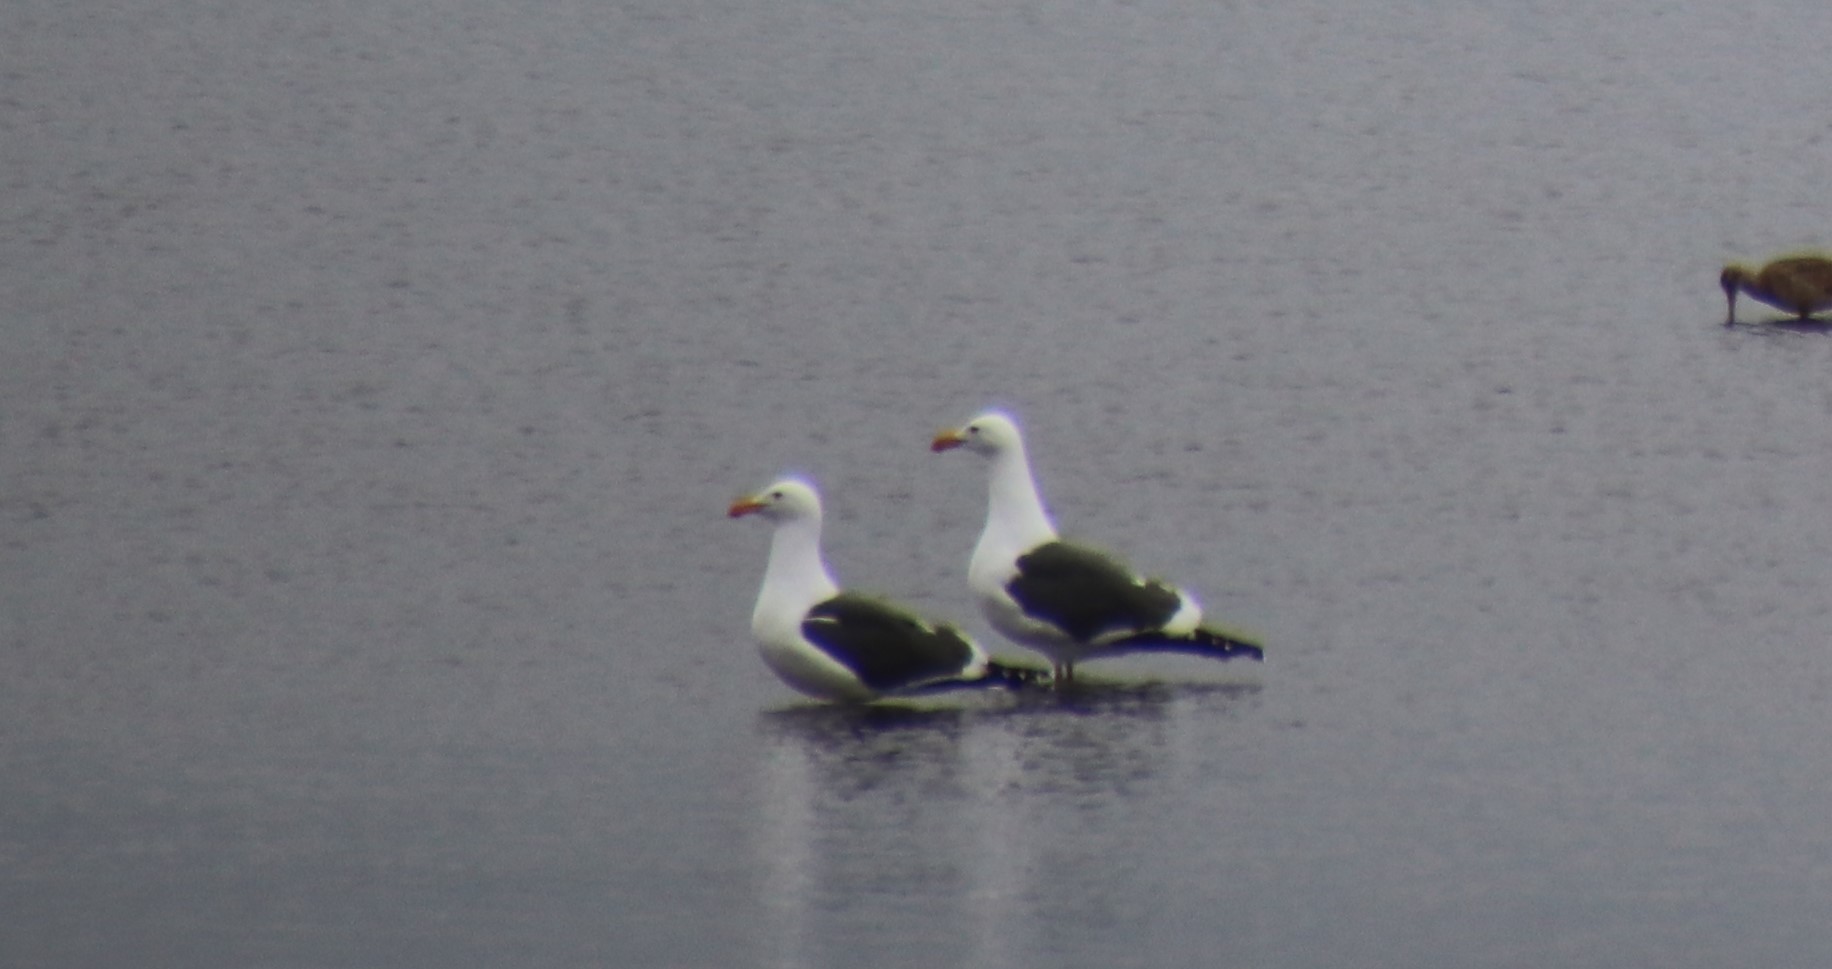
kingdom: Animalia
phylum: Chordata
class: Aves
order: Charadriiformes
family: Laridae
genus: Larus
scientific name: Larus occidentalis
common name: Western gull
